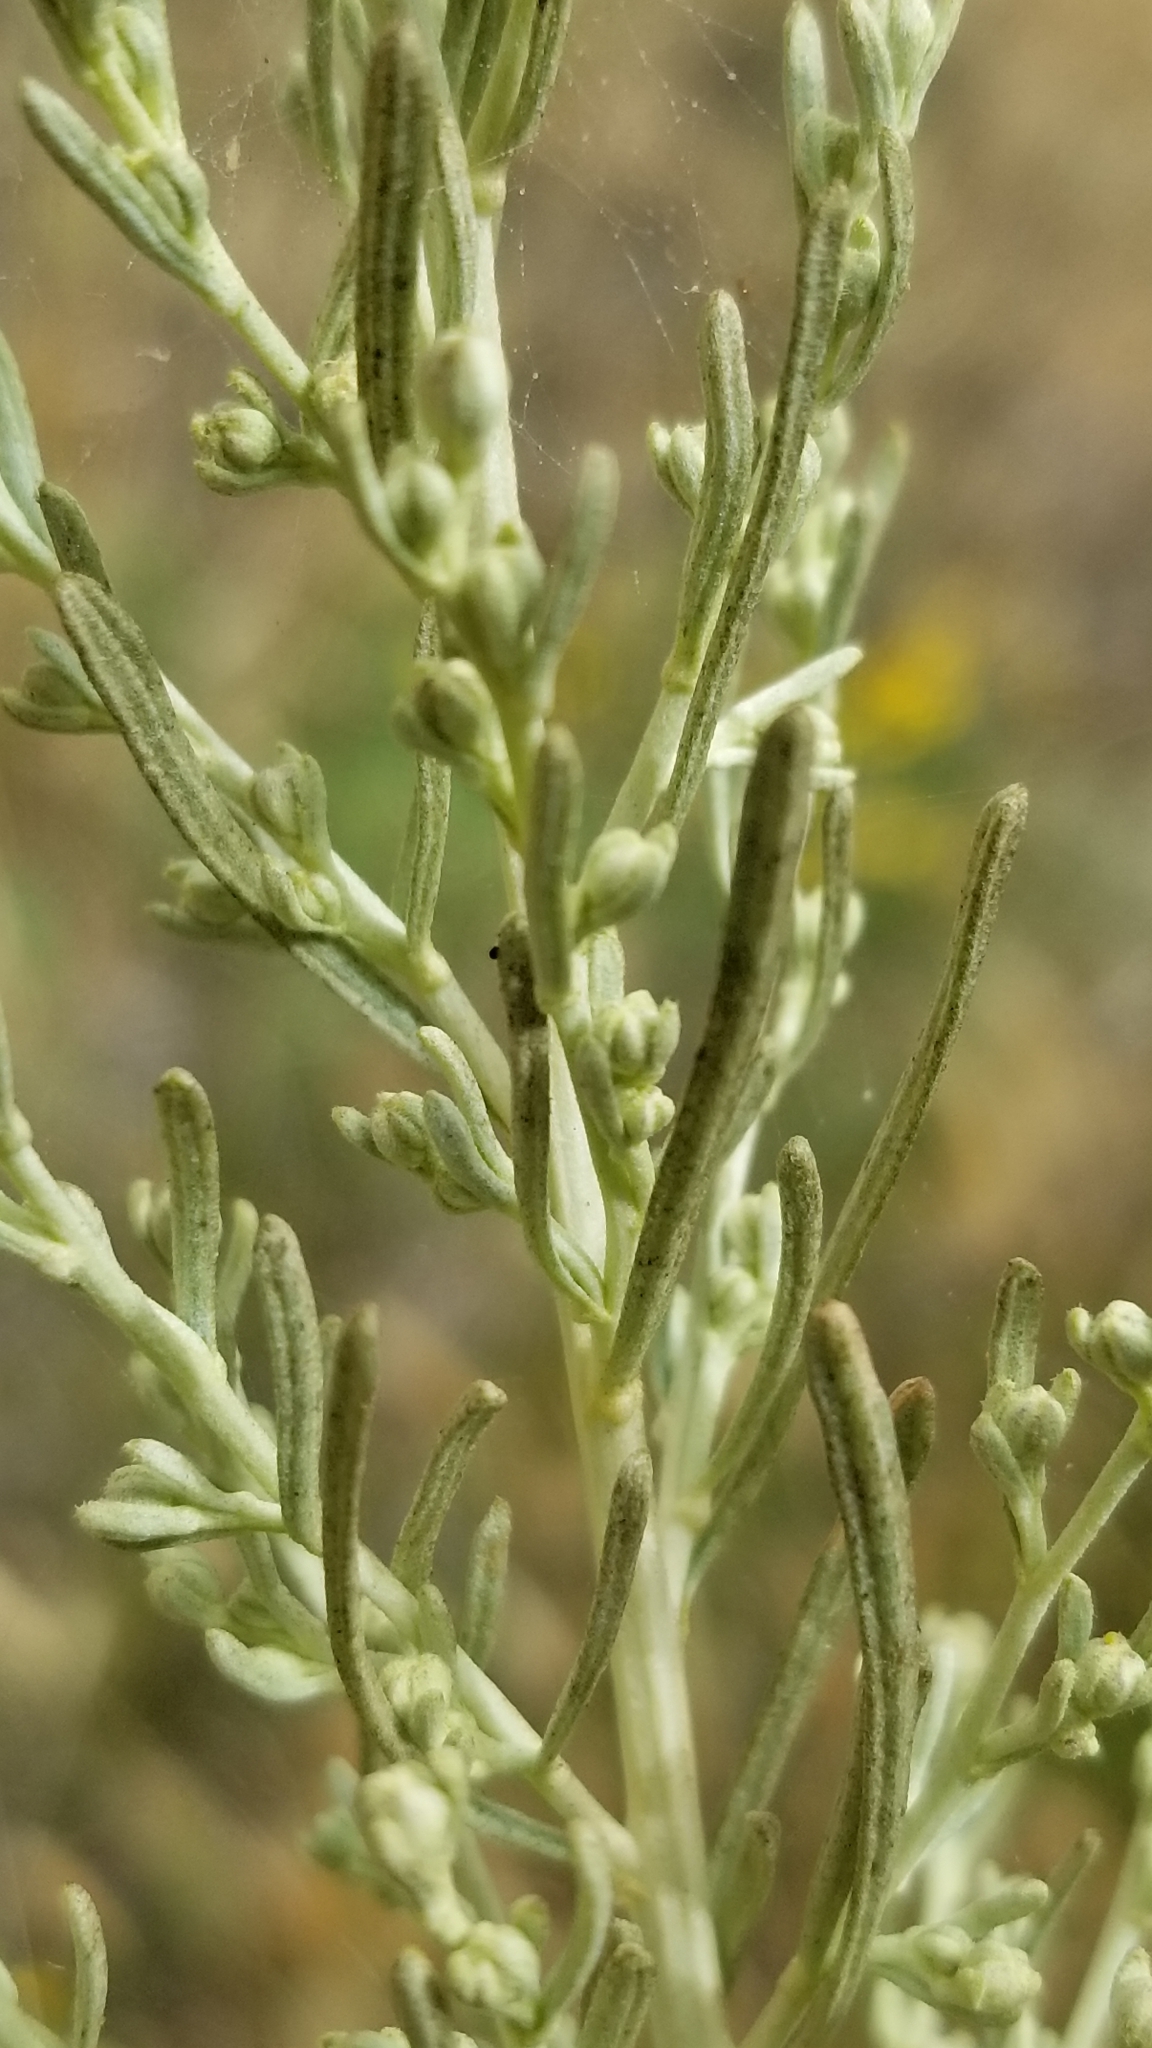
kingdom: Plantae
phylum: Tracheophyta
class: Magnoliopsida
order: Asterales
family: Asteraceae
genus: Artemisia
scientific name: Artemisia californica
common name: California sagebrush
